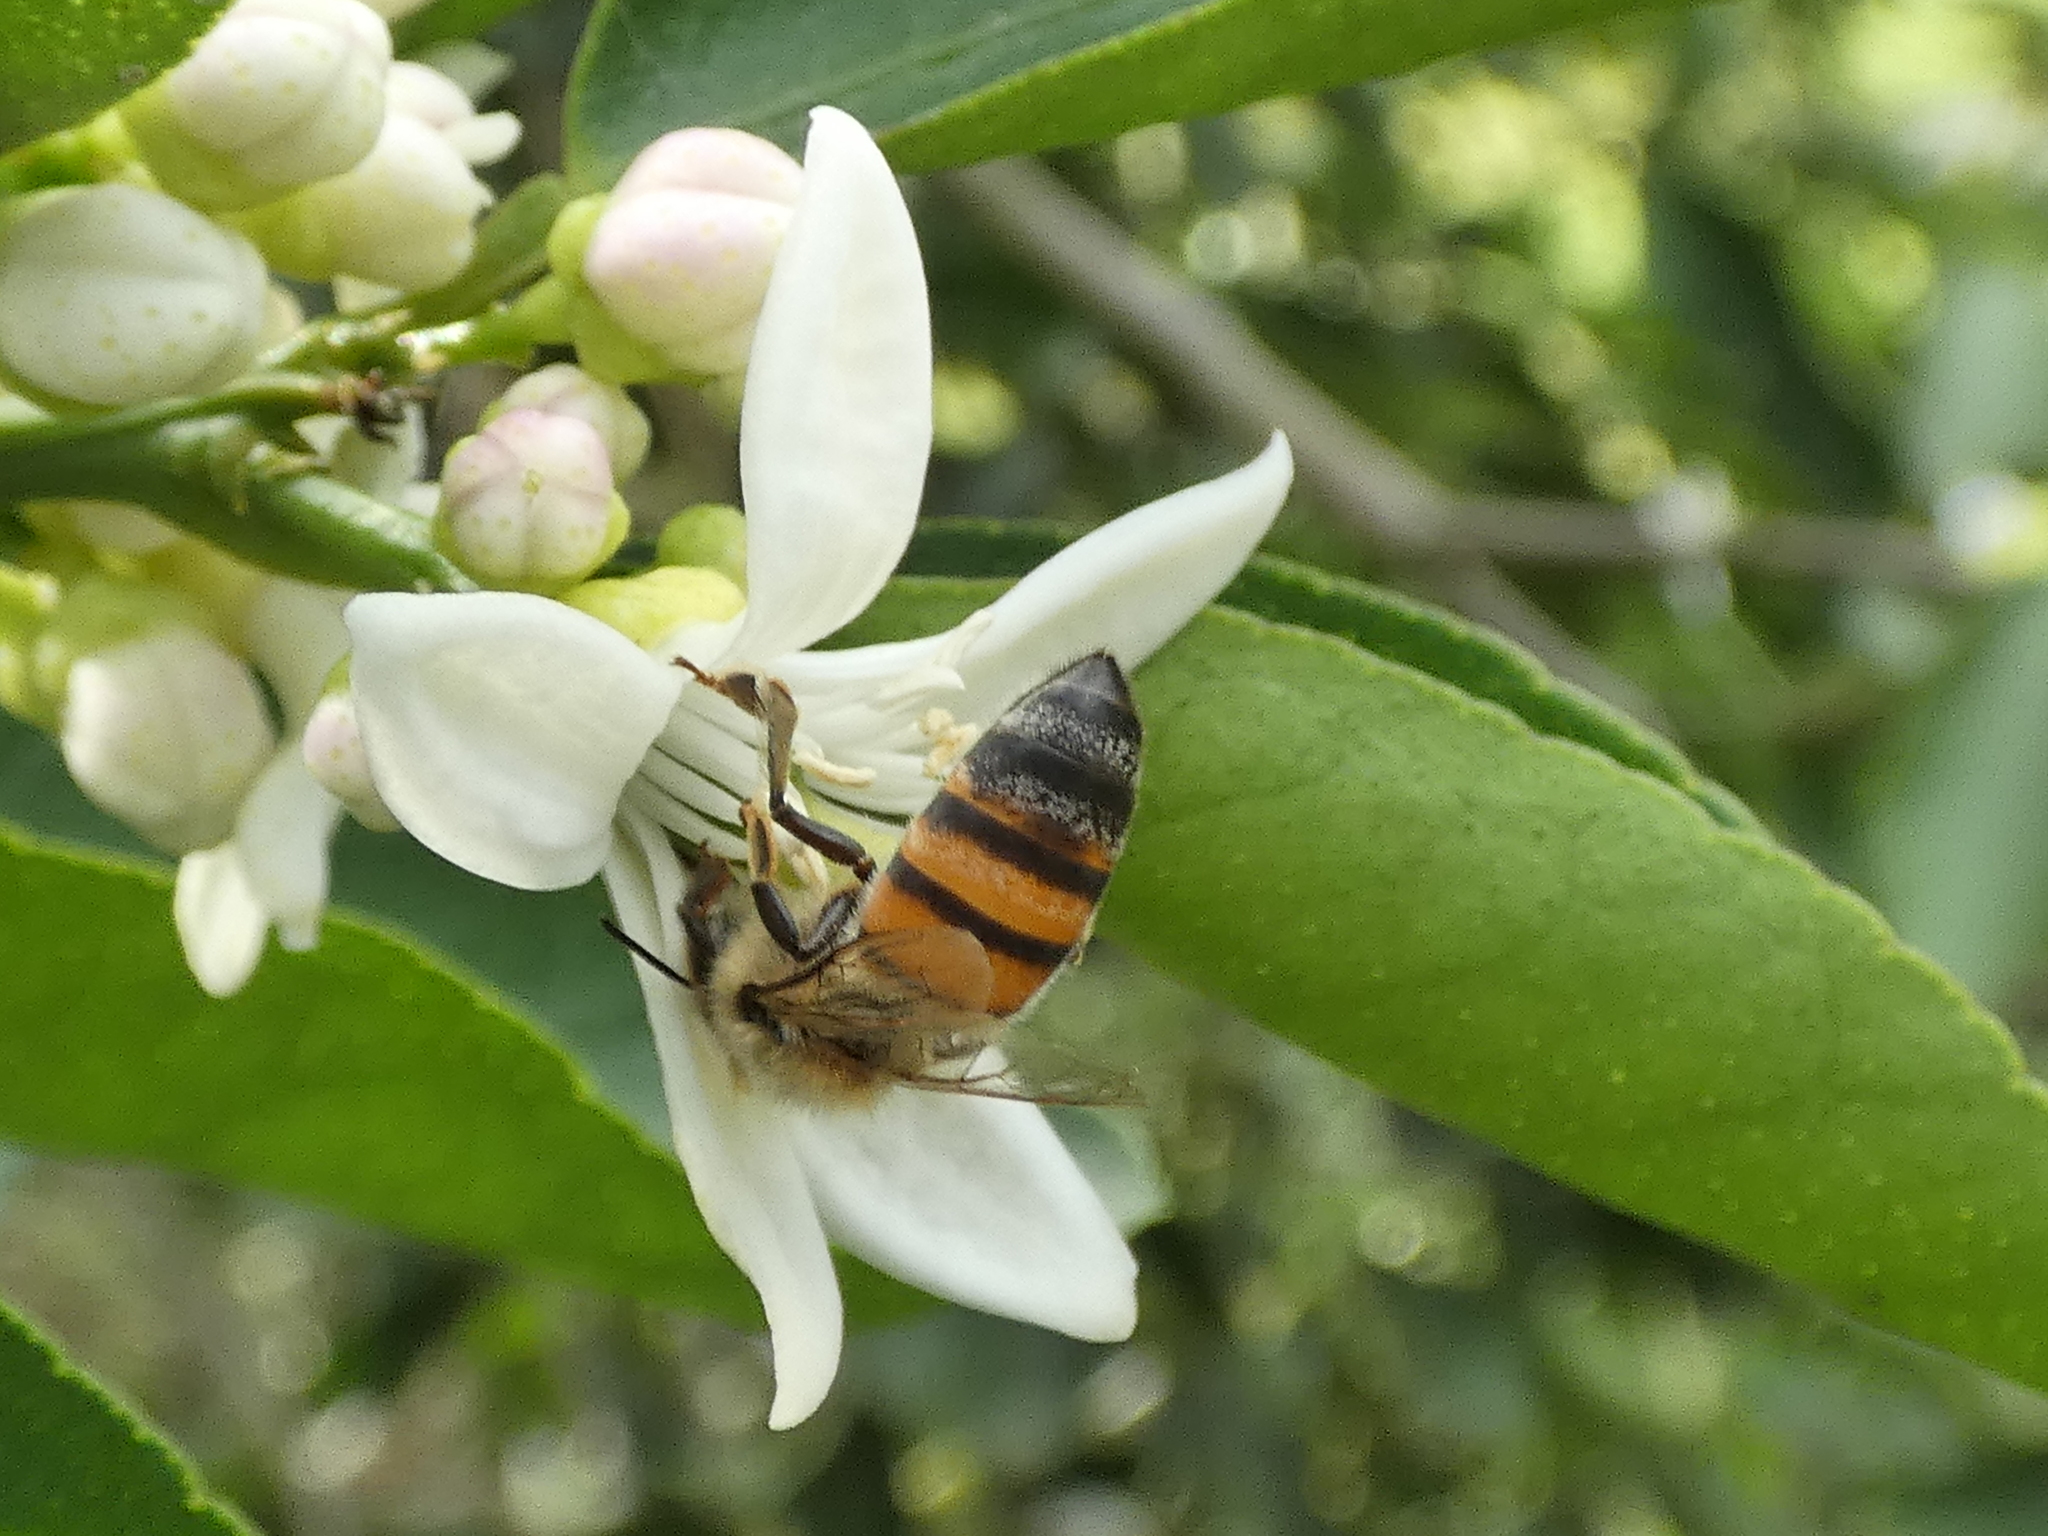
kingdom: Animalia
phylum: Arthropoda
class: Insecta
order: Hymenoptera
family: Apidae
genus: Apis
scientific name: Apis mellifera
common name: Honey bee
